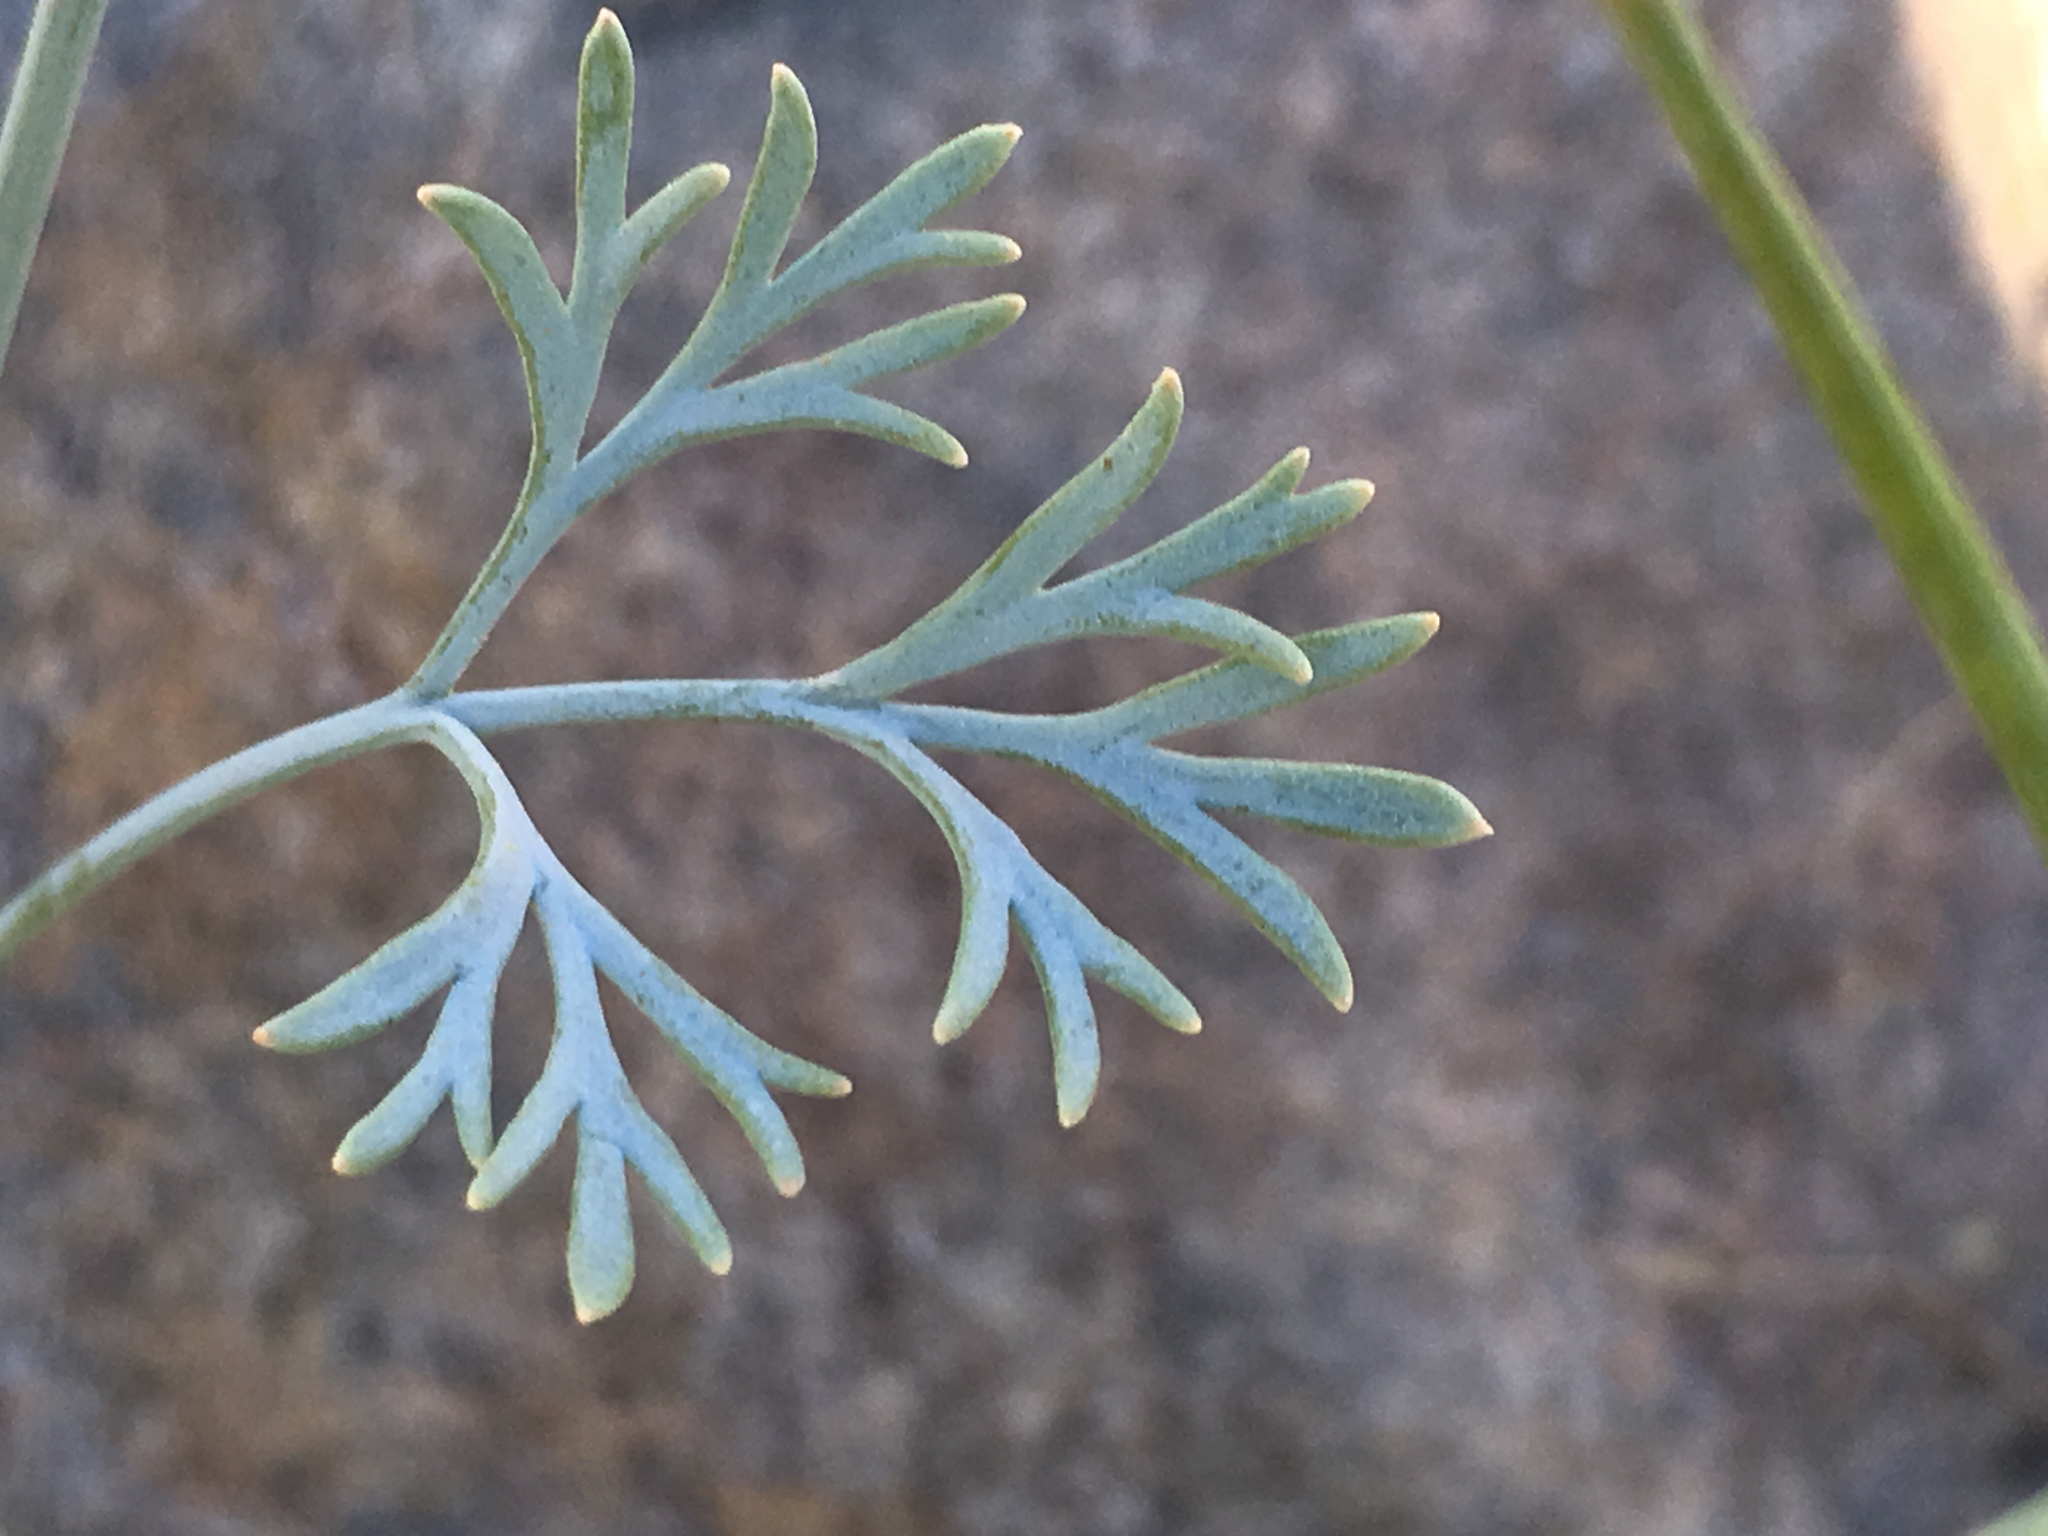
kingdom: Plantae
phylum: Tracheophyta
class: Magnoliopsida
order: Ranunculales
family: Papaveraceae
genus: Eschscholzia
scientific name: Eschscholzia minutiflora
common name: Small-flower california-poppy
